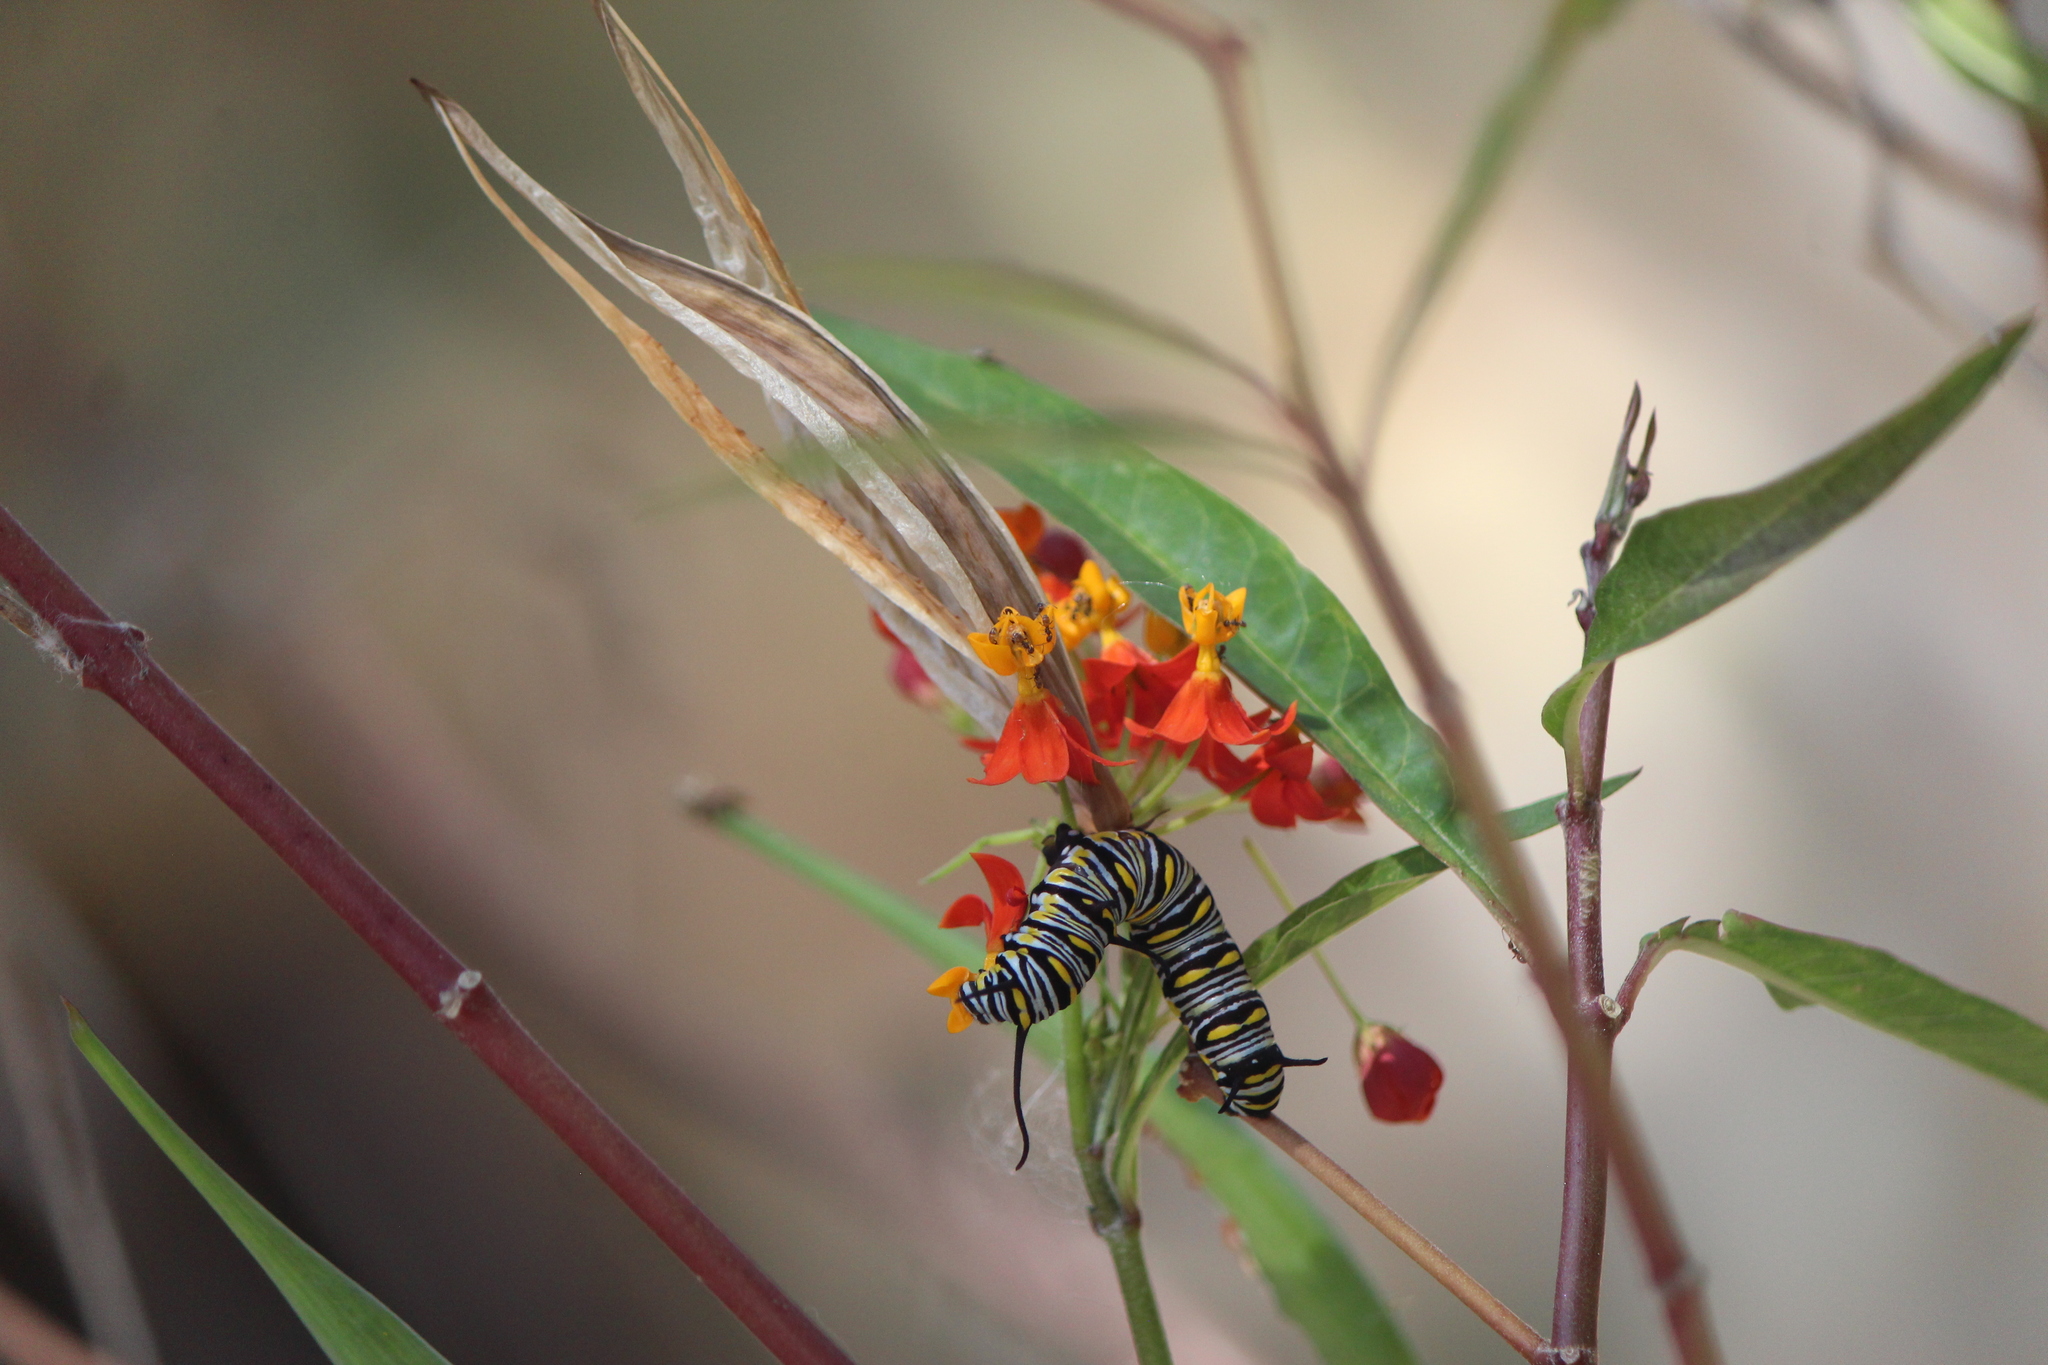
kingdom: Animalia
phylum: Arthropoda
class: Insecta
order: Lepidoptera
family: Nymphalidae
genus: Danaus
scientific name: Danaus gilippus
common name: Queen
